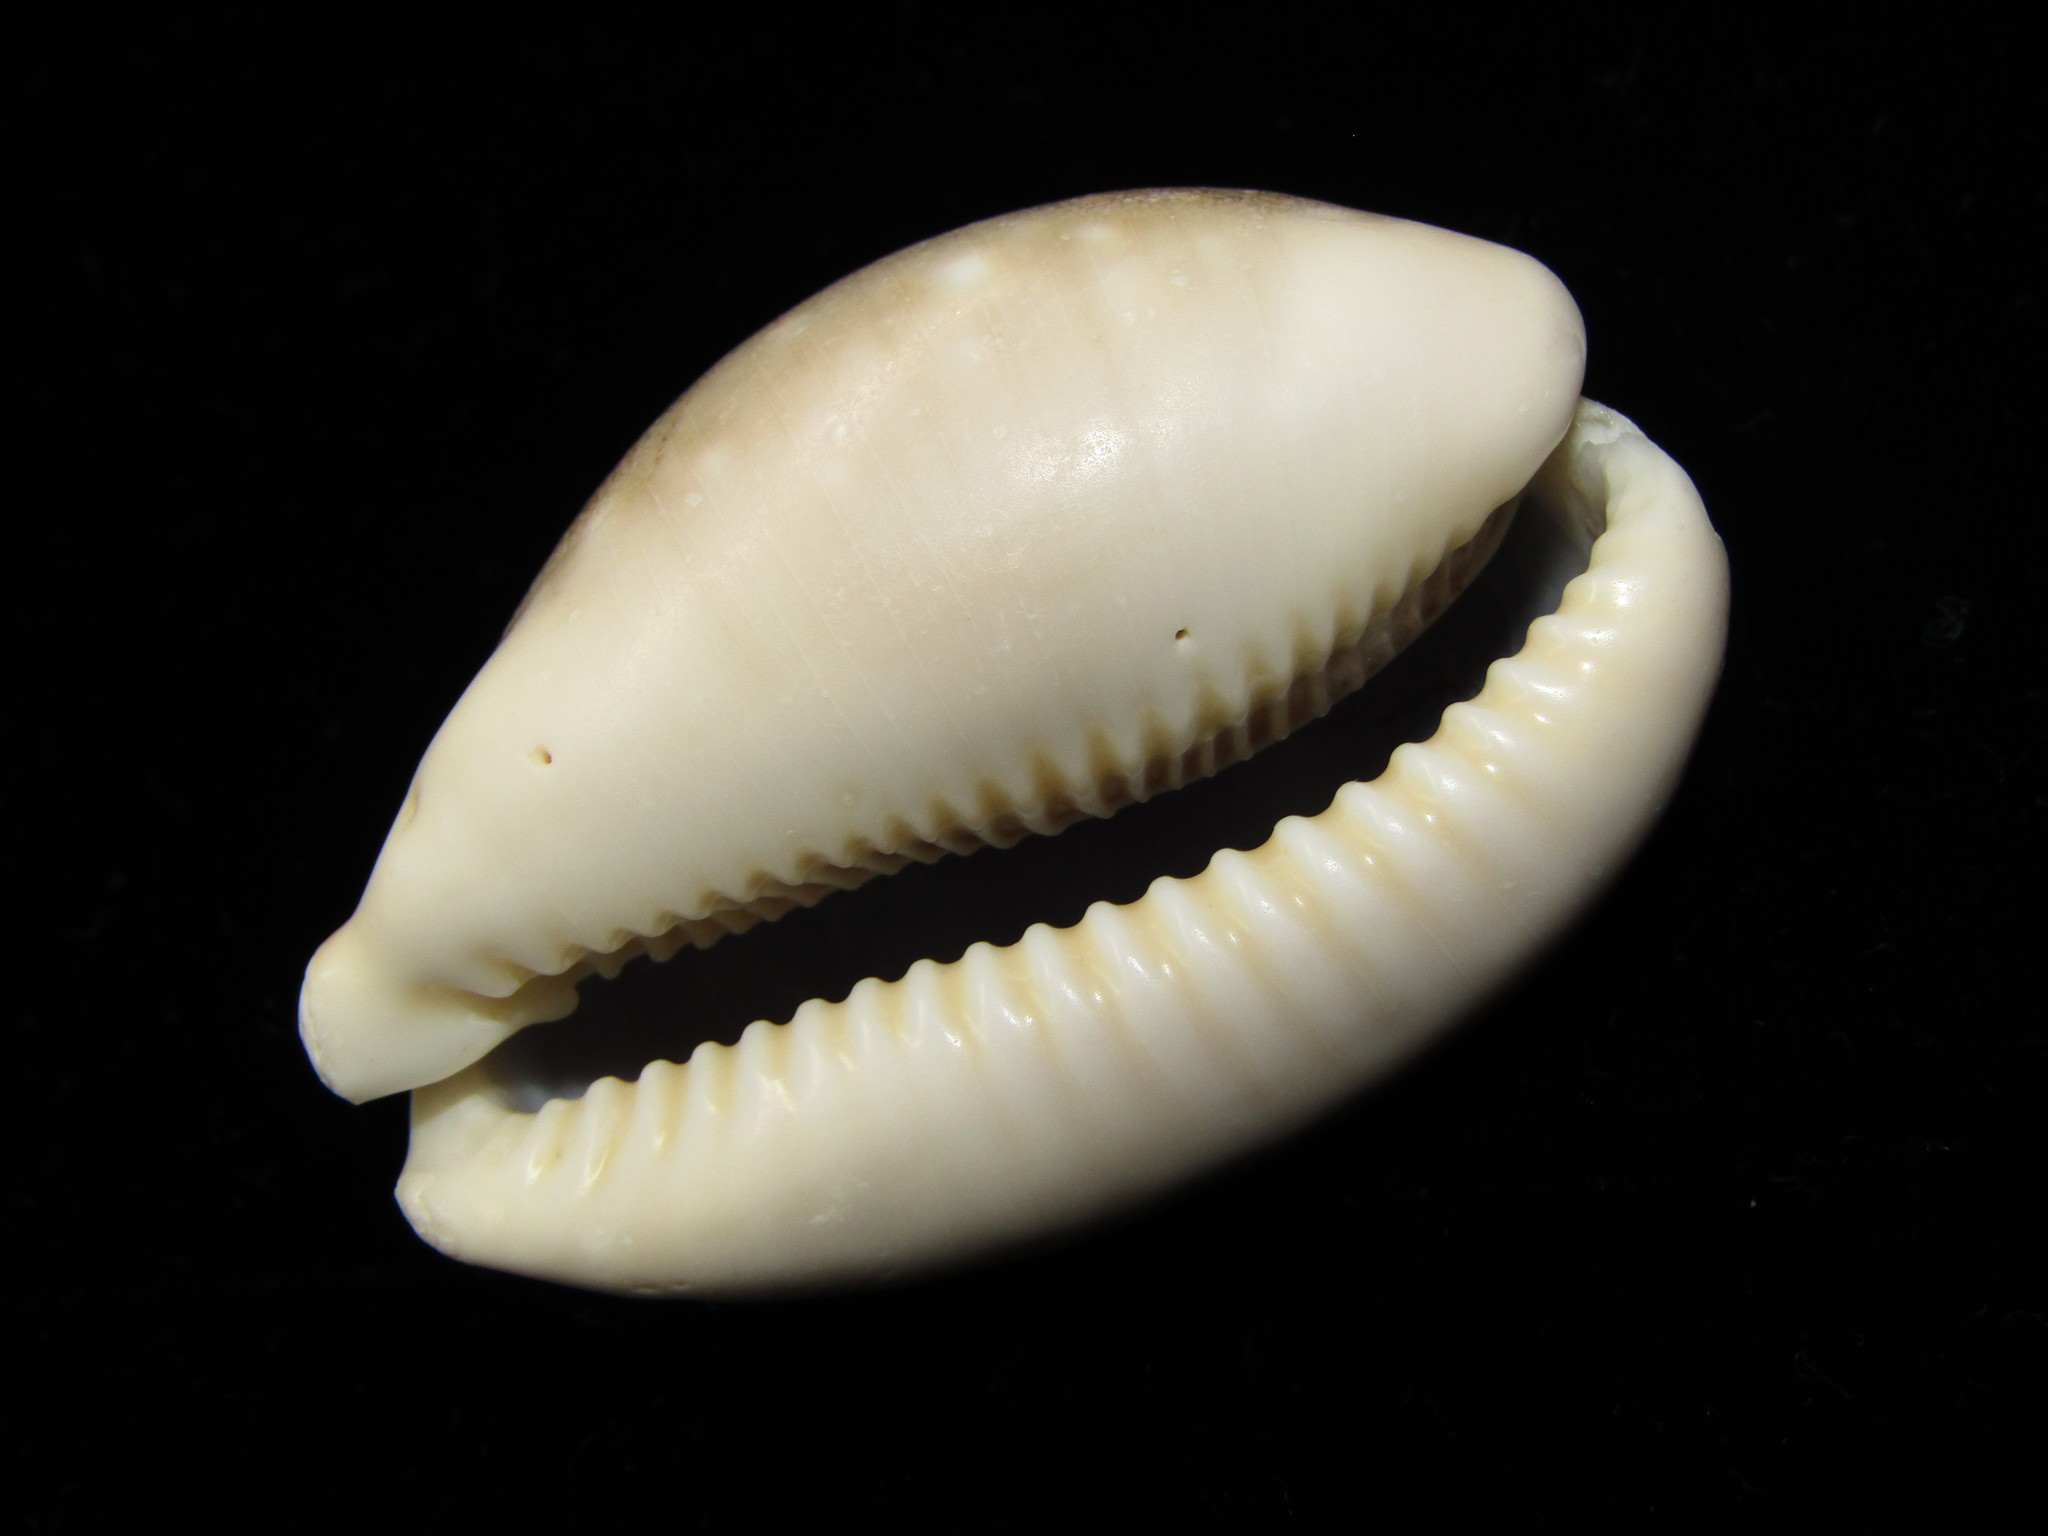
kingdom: Animalia
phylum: Mollusca
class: Gastropoda
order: Littorinimorpha
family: Cypraeidae
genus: Lyncina
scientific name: Lyncina vitellus
